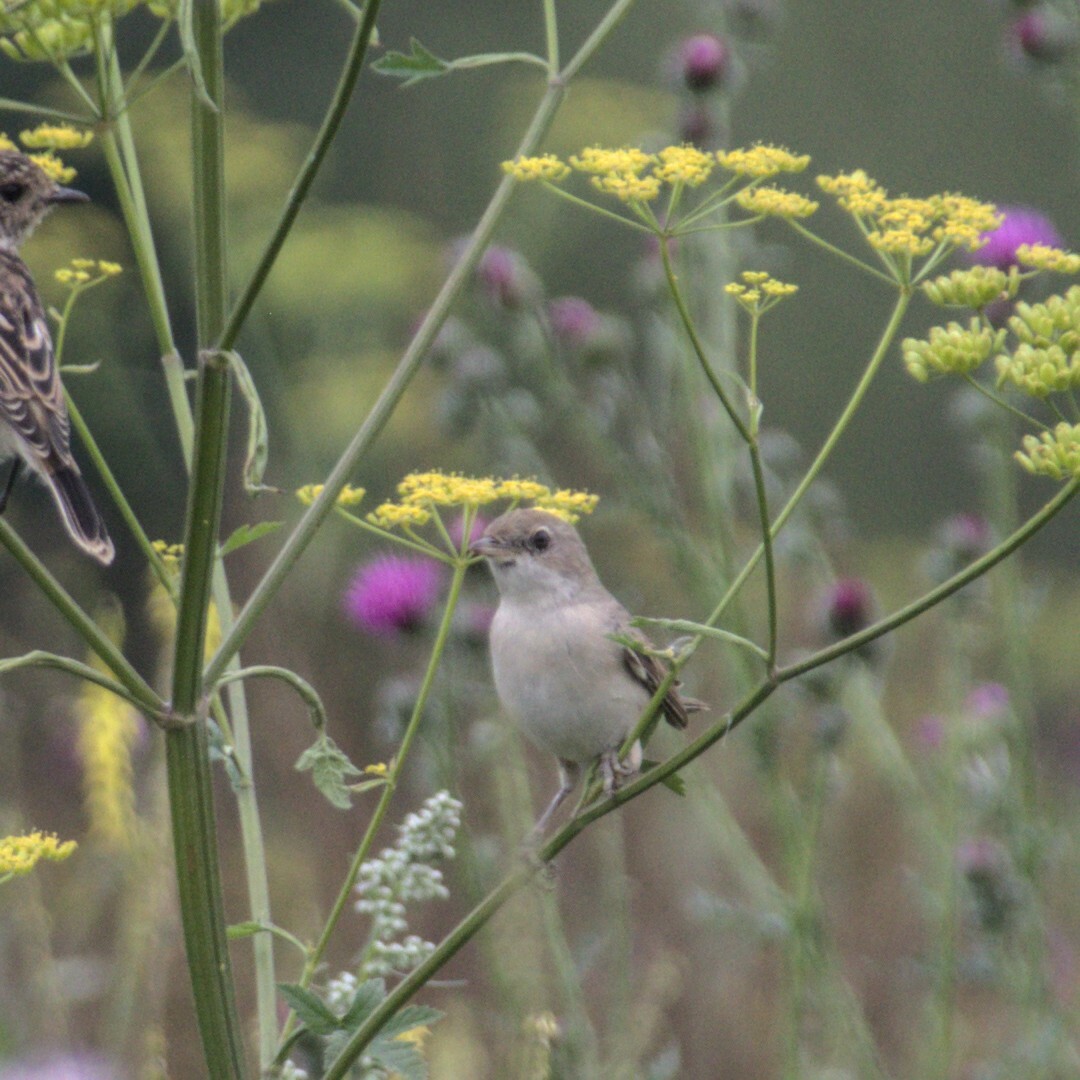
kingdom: Animalia
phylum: Chordata
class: Aves
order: Passeriformes
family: Sylviidae
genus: Sylvia
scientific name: Sylvia communis
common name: Common whitethroat
